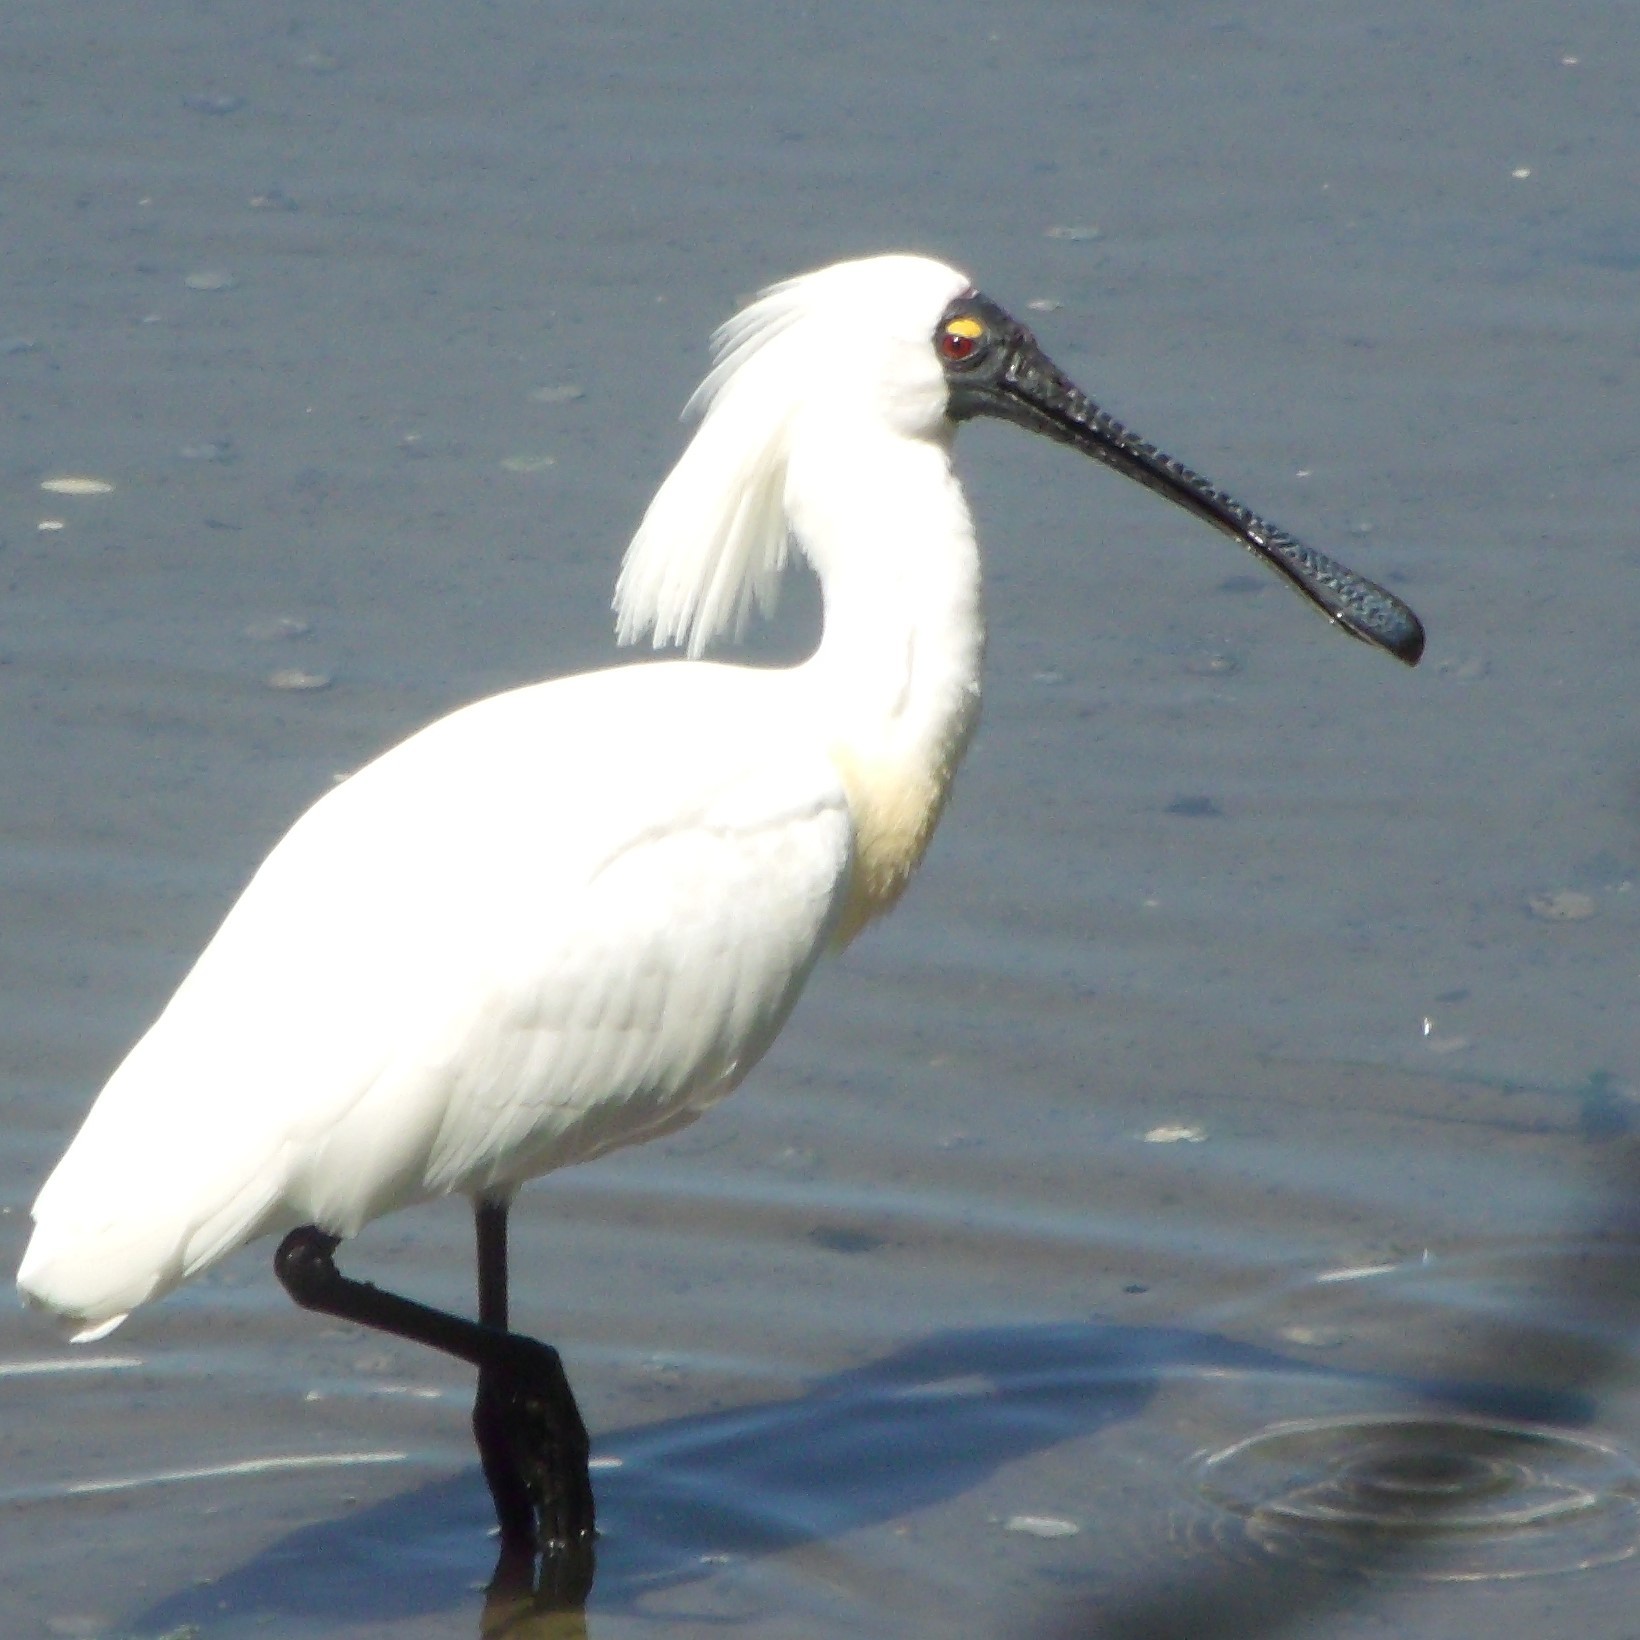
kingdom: Animalia
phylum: Chordata
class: Aves
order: Pelecaniformes
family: Threskiornithidae
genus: Platalea
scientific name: Platalea regia
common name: Royal spoonbill
